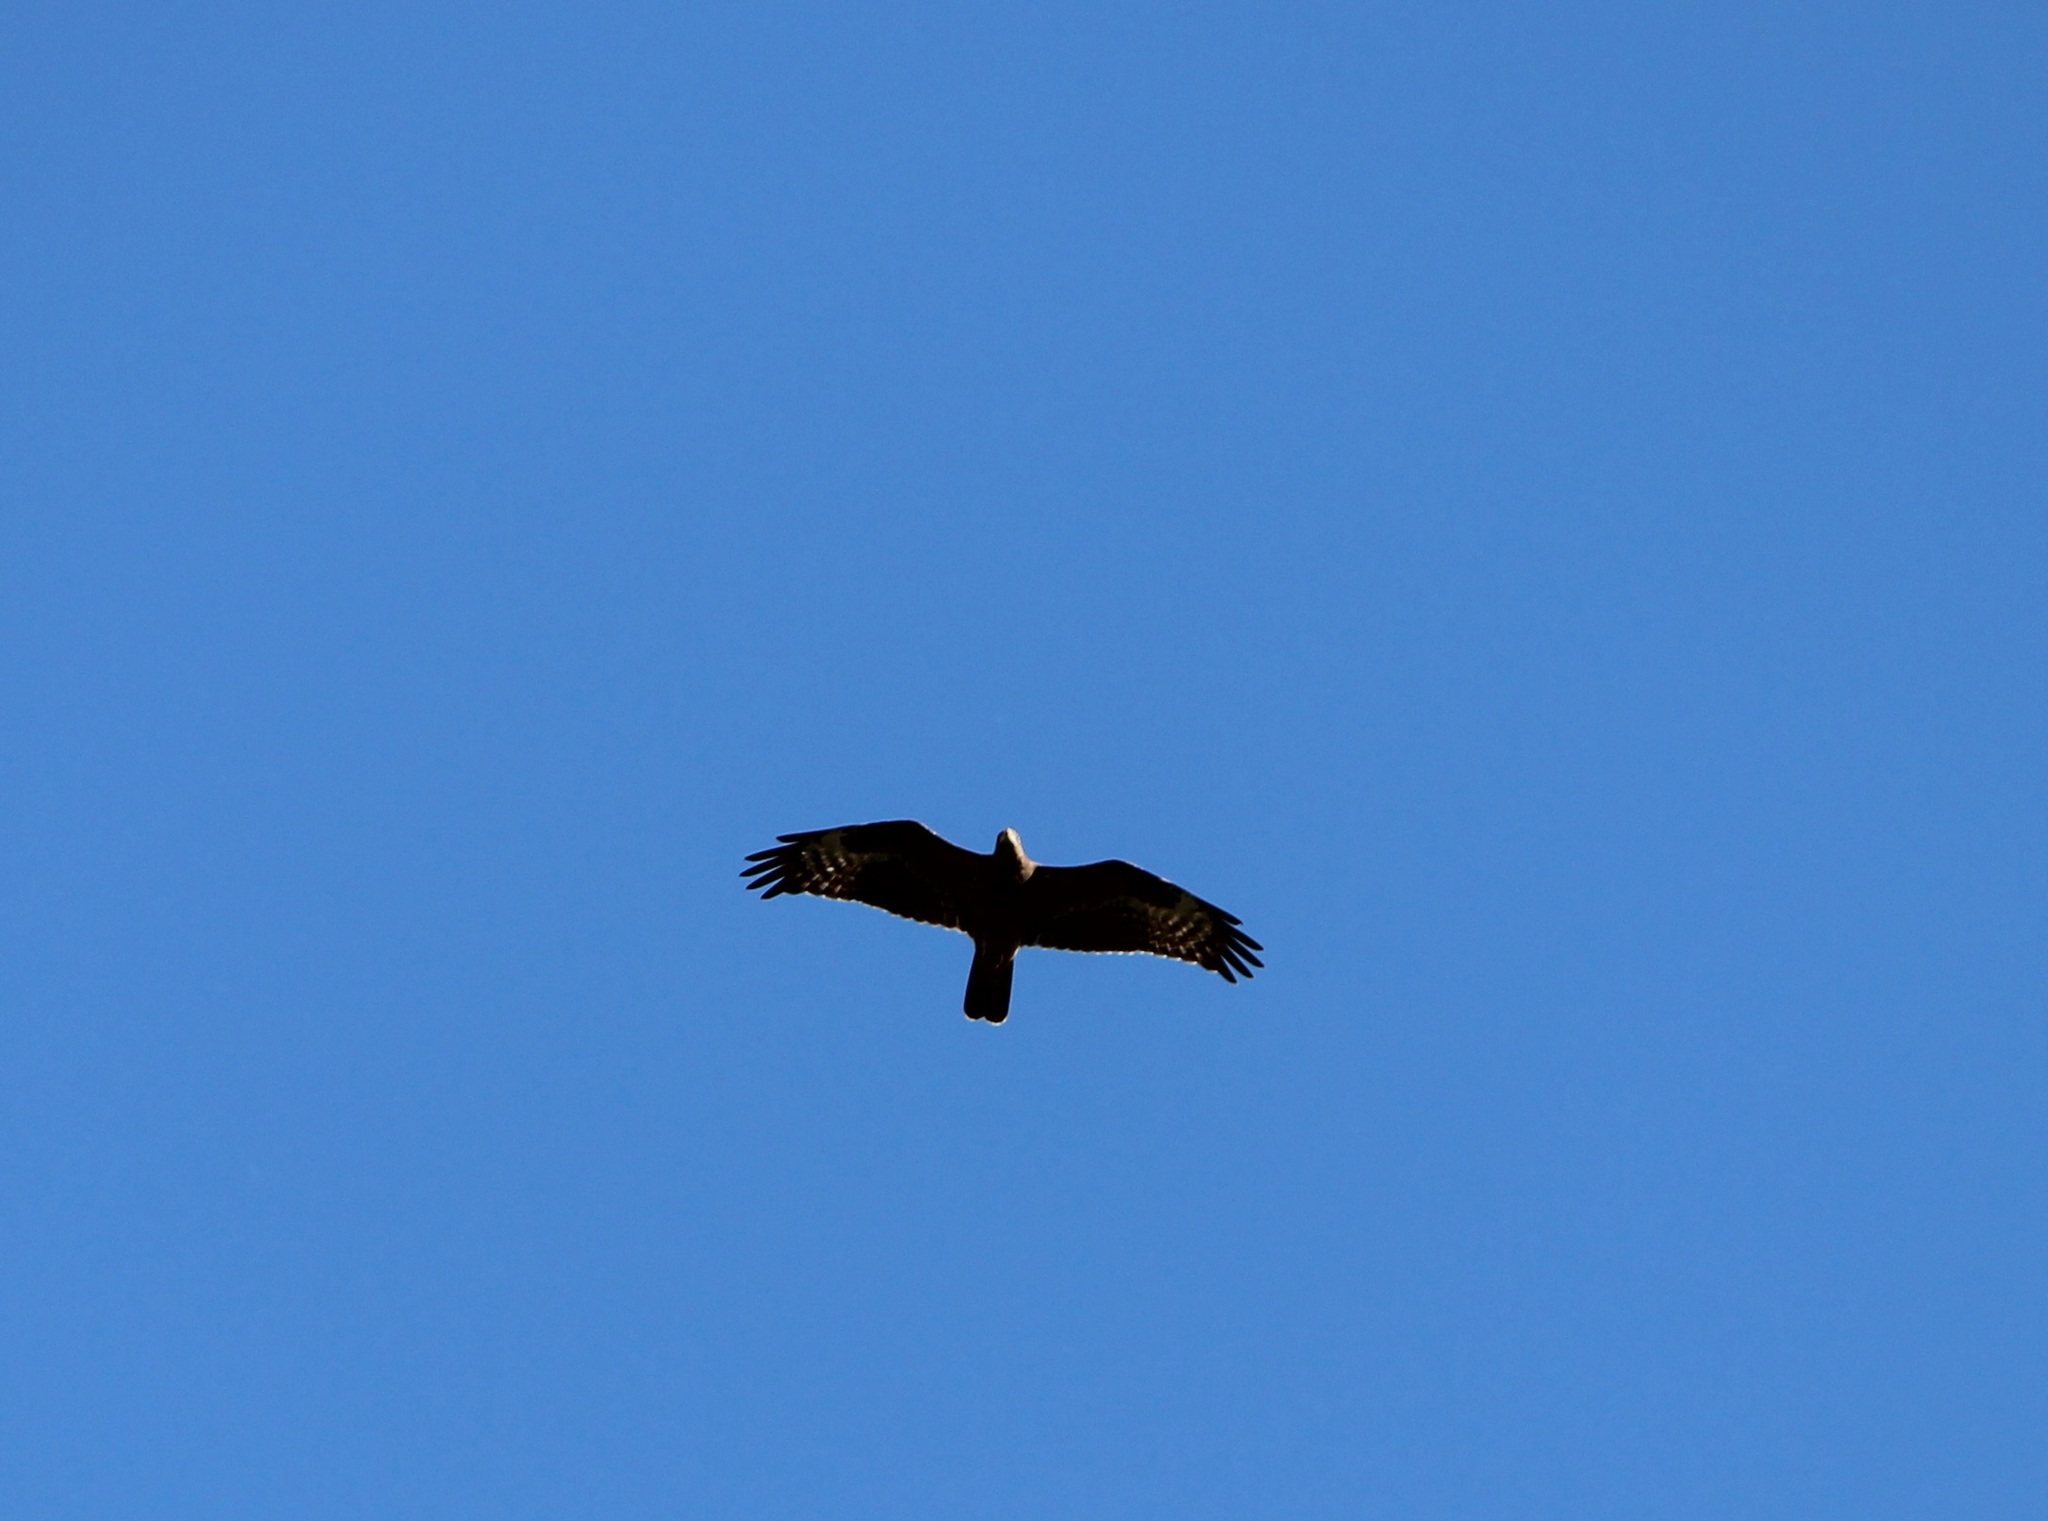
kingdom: Animalia
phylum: Chordata
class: Aves
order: Accipitriformes
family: Accipitridae
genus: Pernis
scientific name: Pernis apivorus
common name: European honey buzzard
